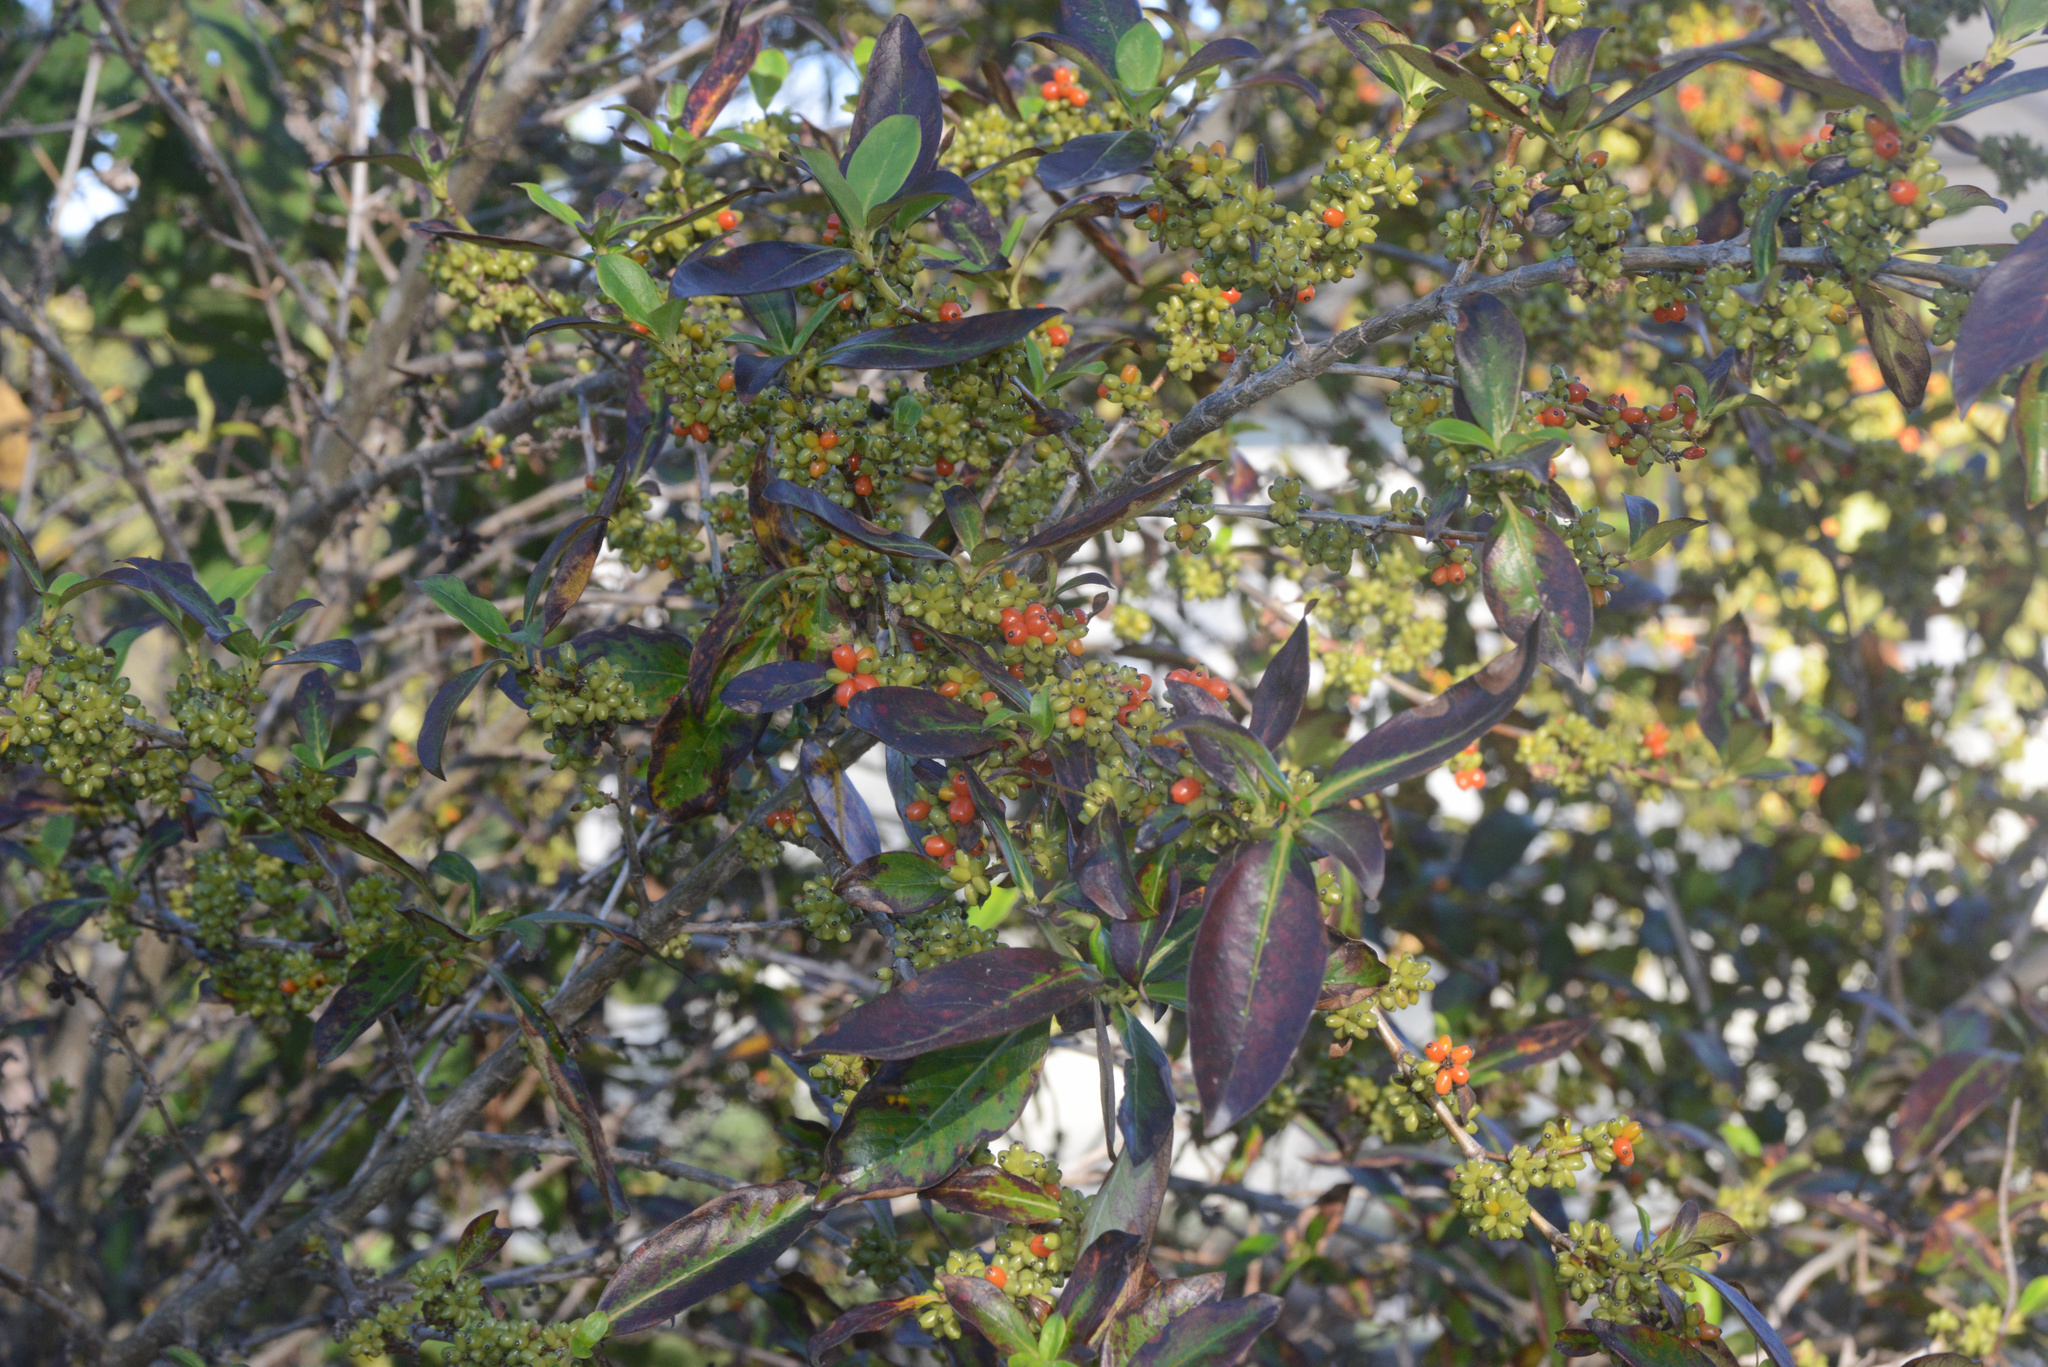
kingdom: Plantae
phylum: Tracheophyta
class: Magnoliopsida
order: Gentianales
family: Rubiaceae
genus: Coprosma
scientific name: Coprosma robusta
